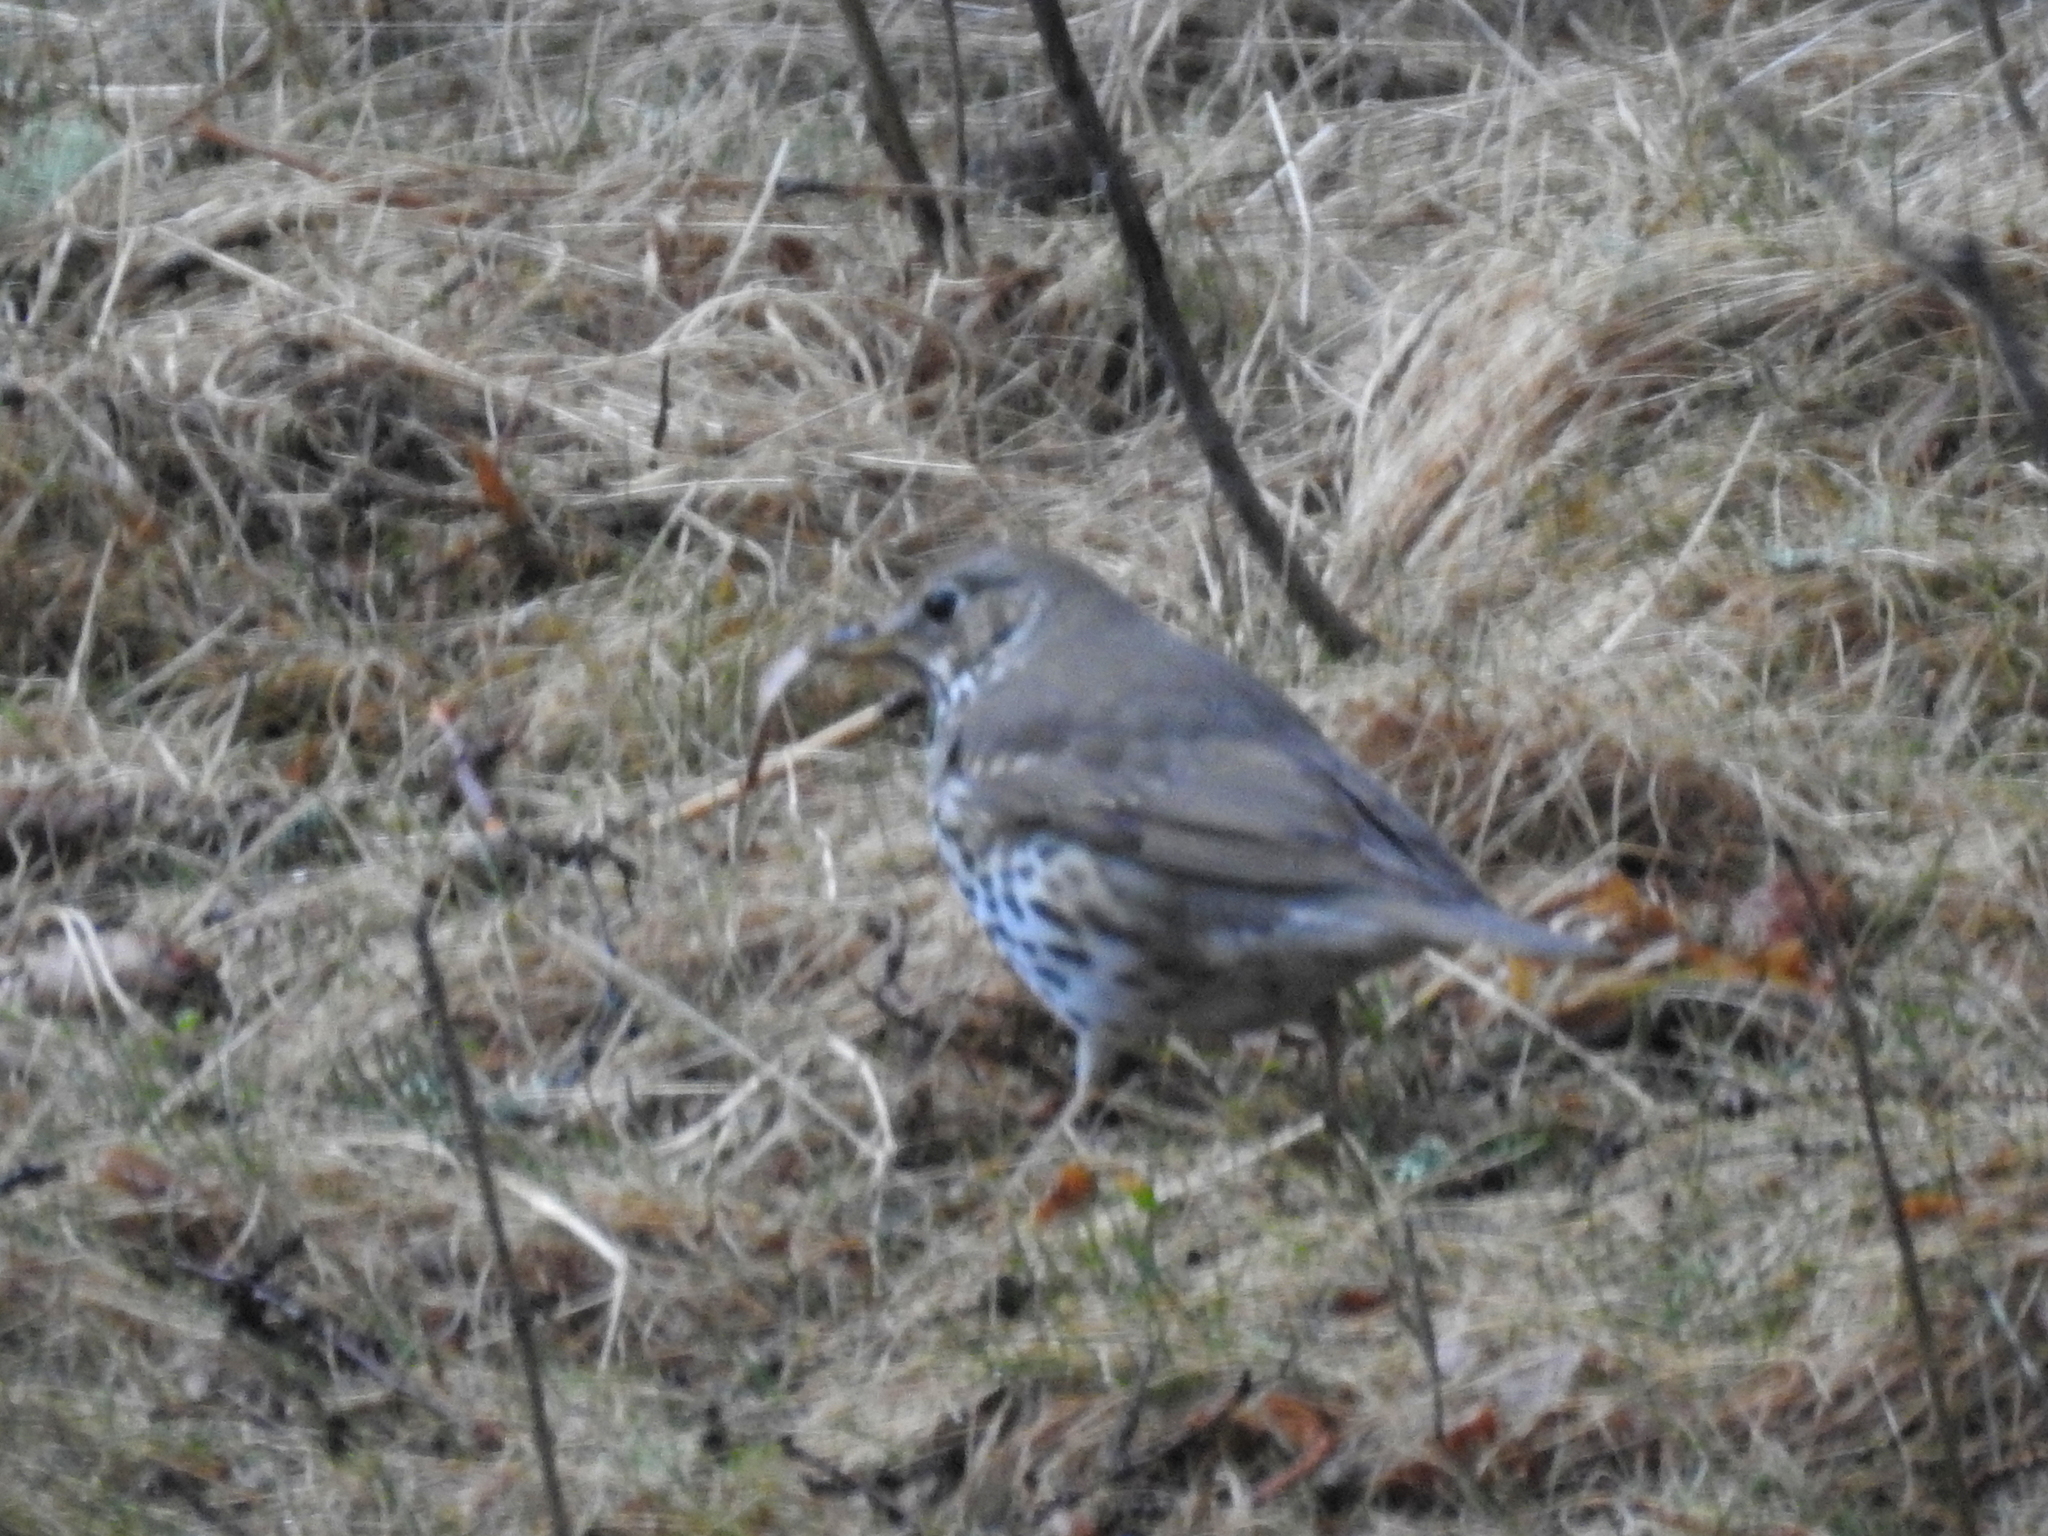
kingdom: Animalia
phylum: Chordata
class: Aves
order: Passeriformes
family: Turdidae
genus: Turdus
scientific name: Turdus philomelos
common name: Song thrush
